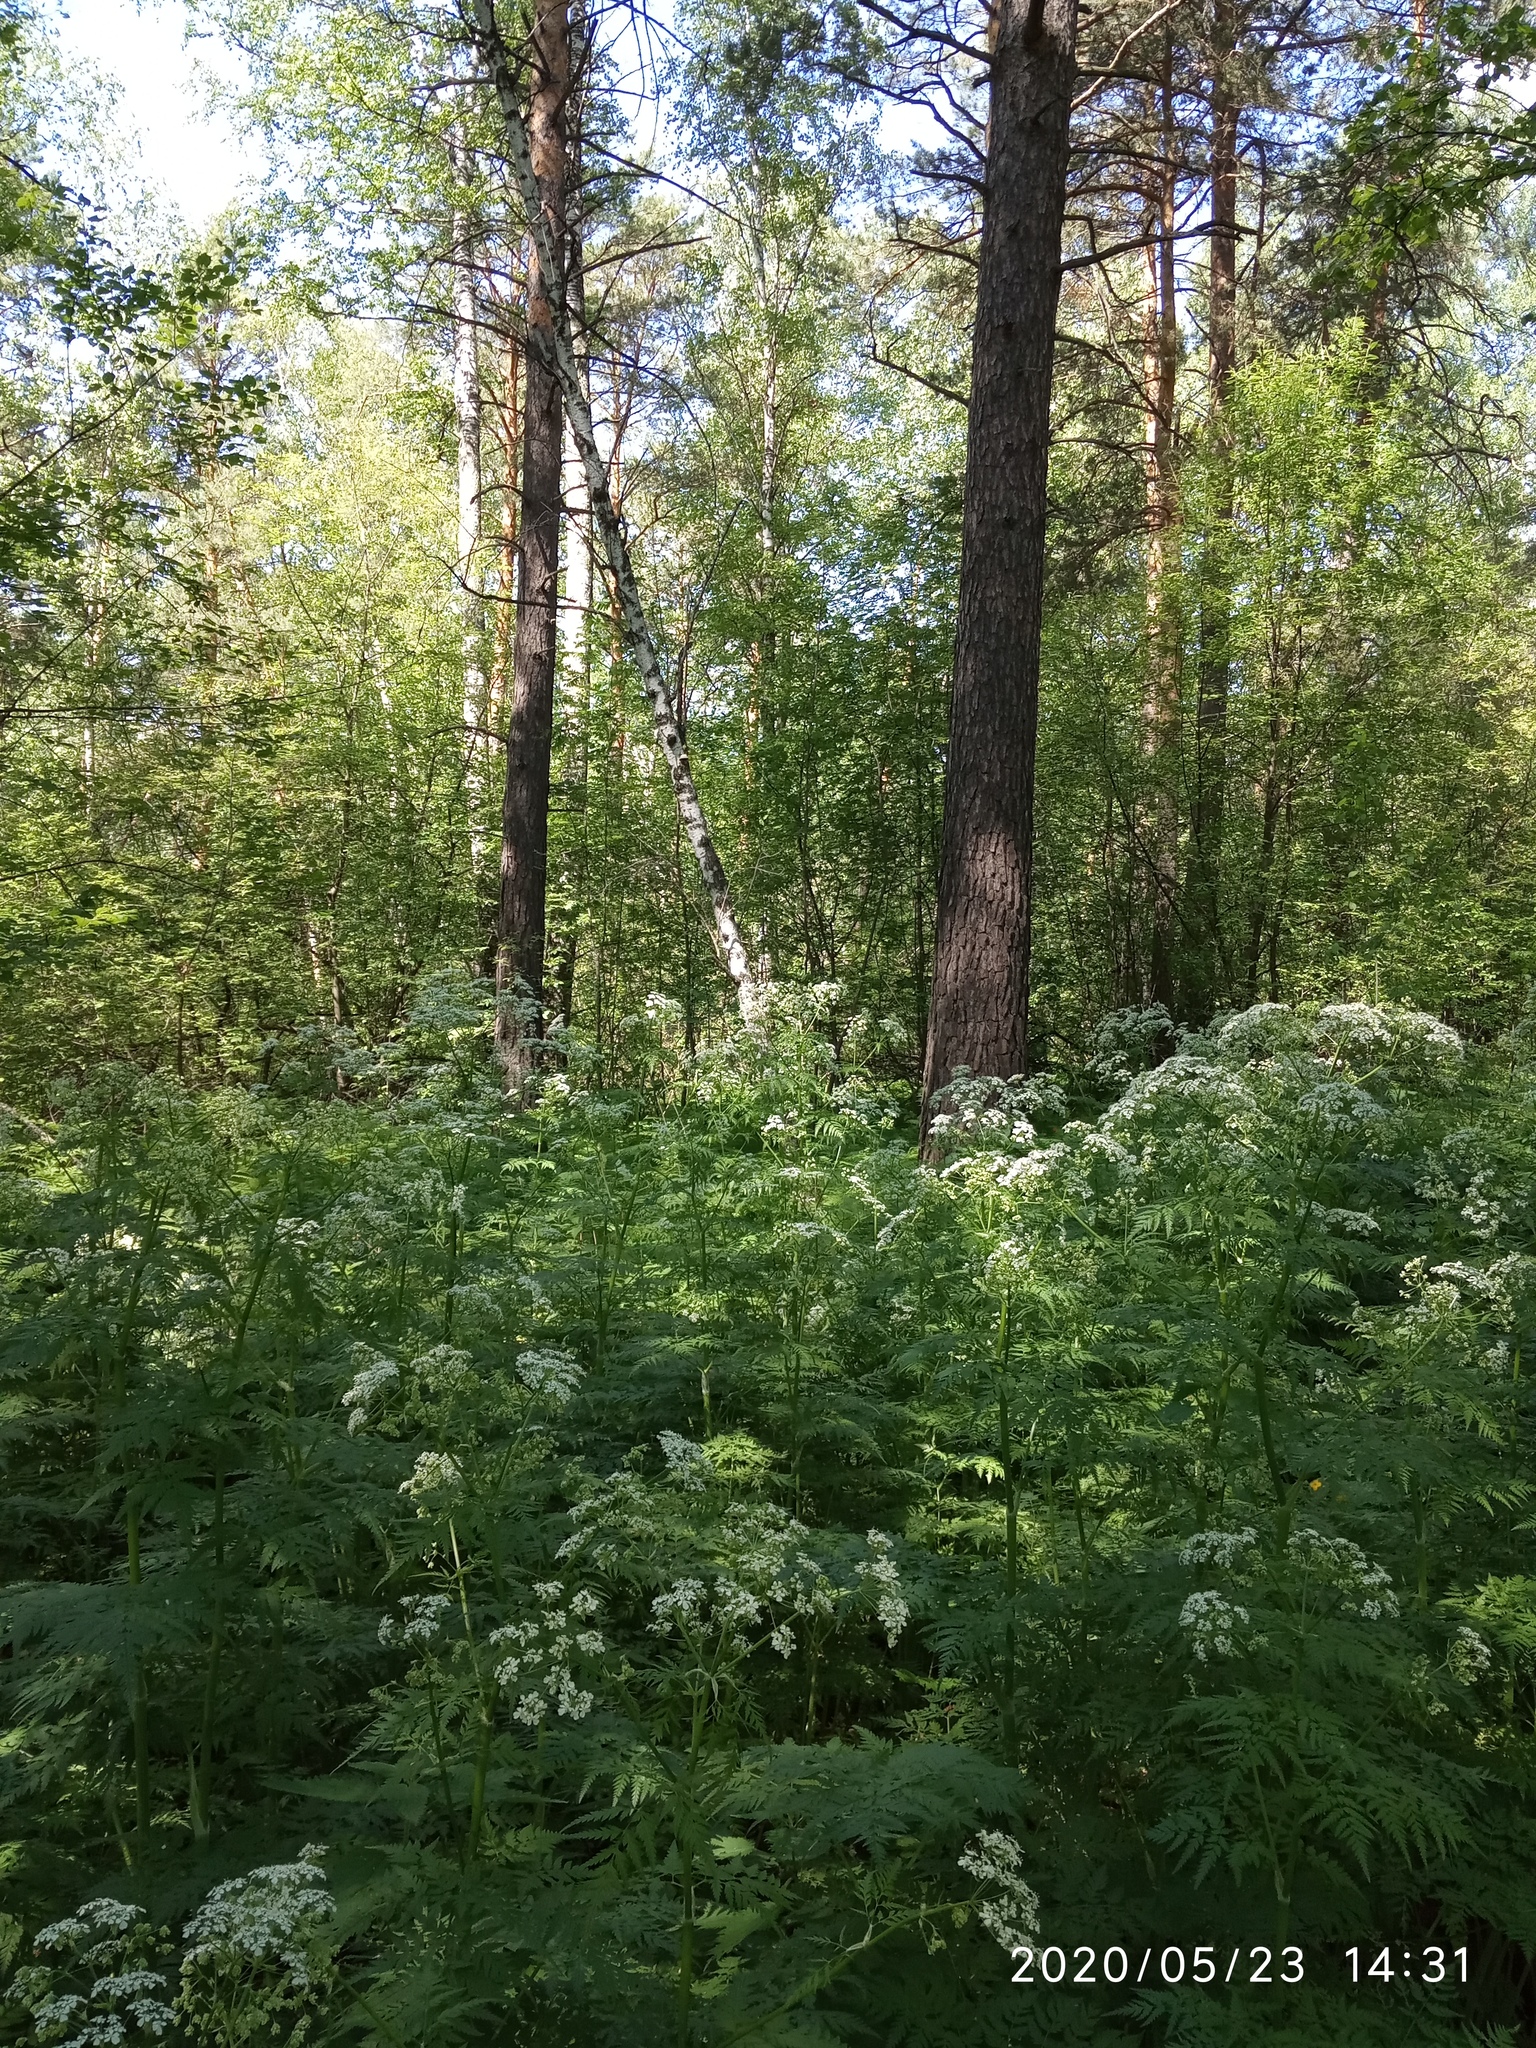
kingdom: Plantae
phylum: Tracheophyta
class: Magnoliopsida
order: Apiales
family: Apiaceae
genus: Anthriscus
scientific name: Anthriscus sylvestris
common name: Cow parsley
